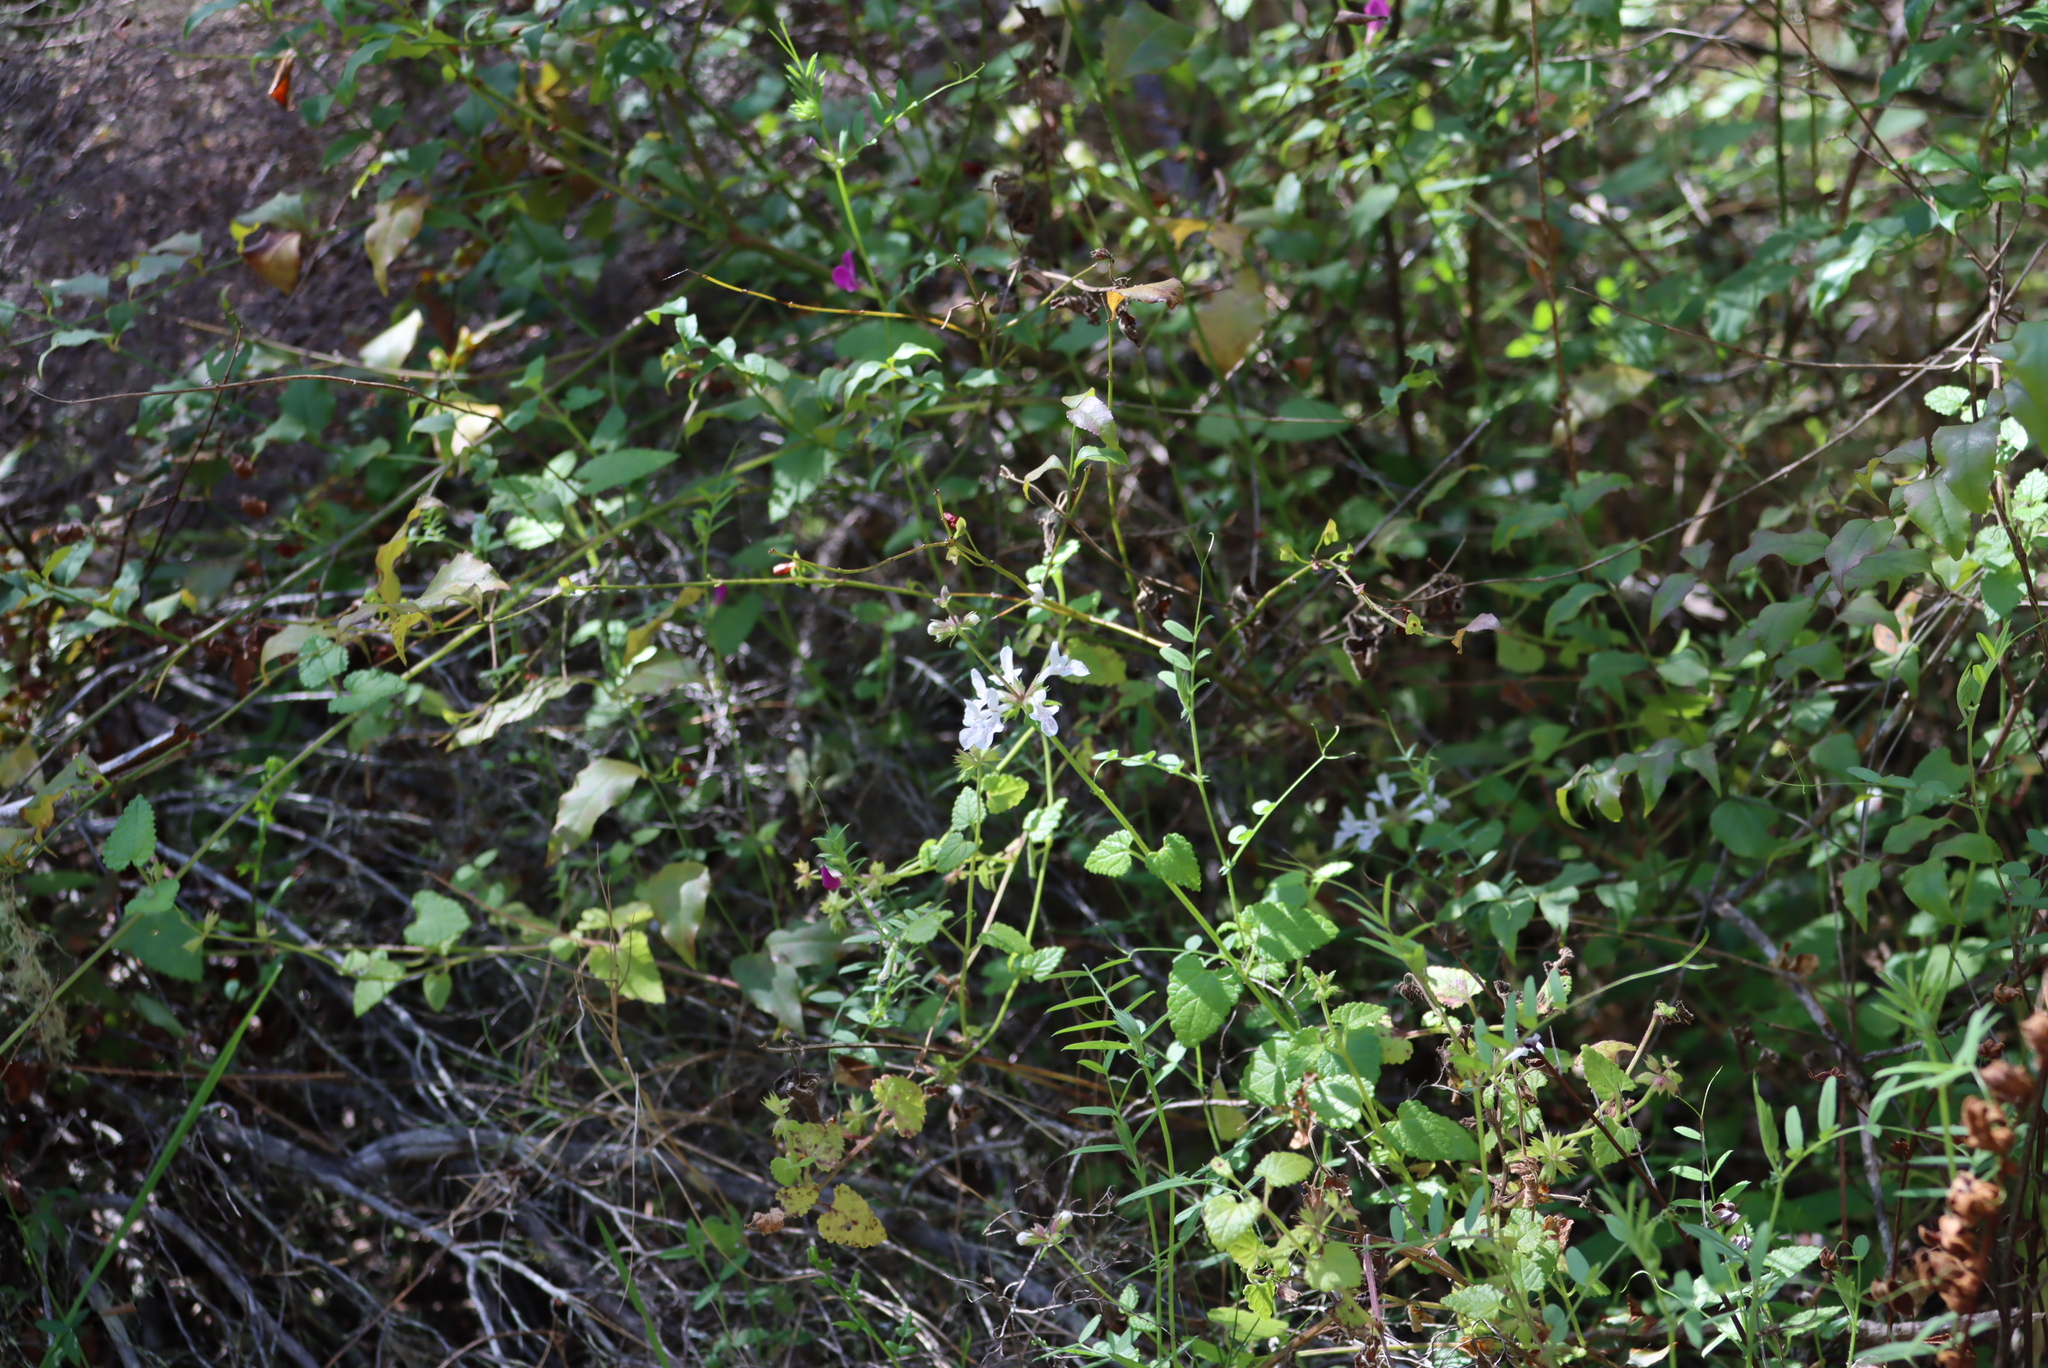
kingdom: Plantae
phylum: Tracheophyta
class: Magnoliopsida
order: Lamiales
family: Lamiaceae
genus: Stachys
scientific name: Stachys aethiopica
